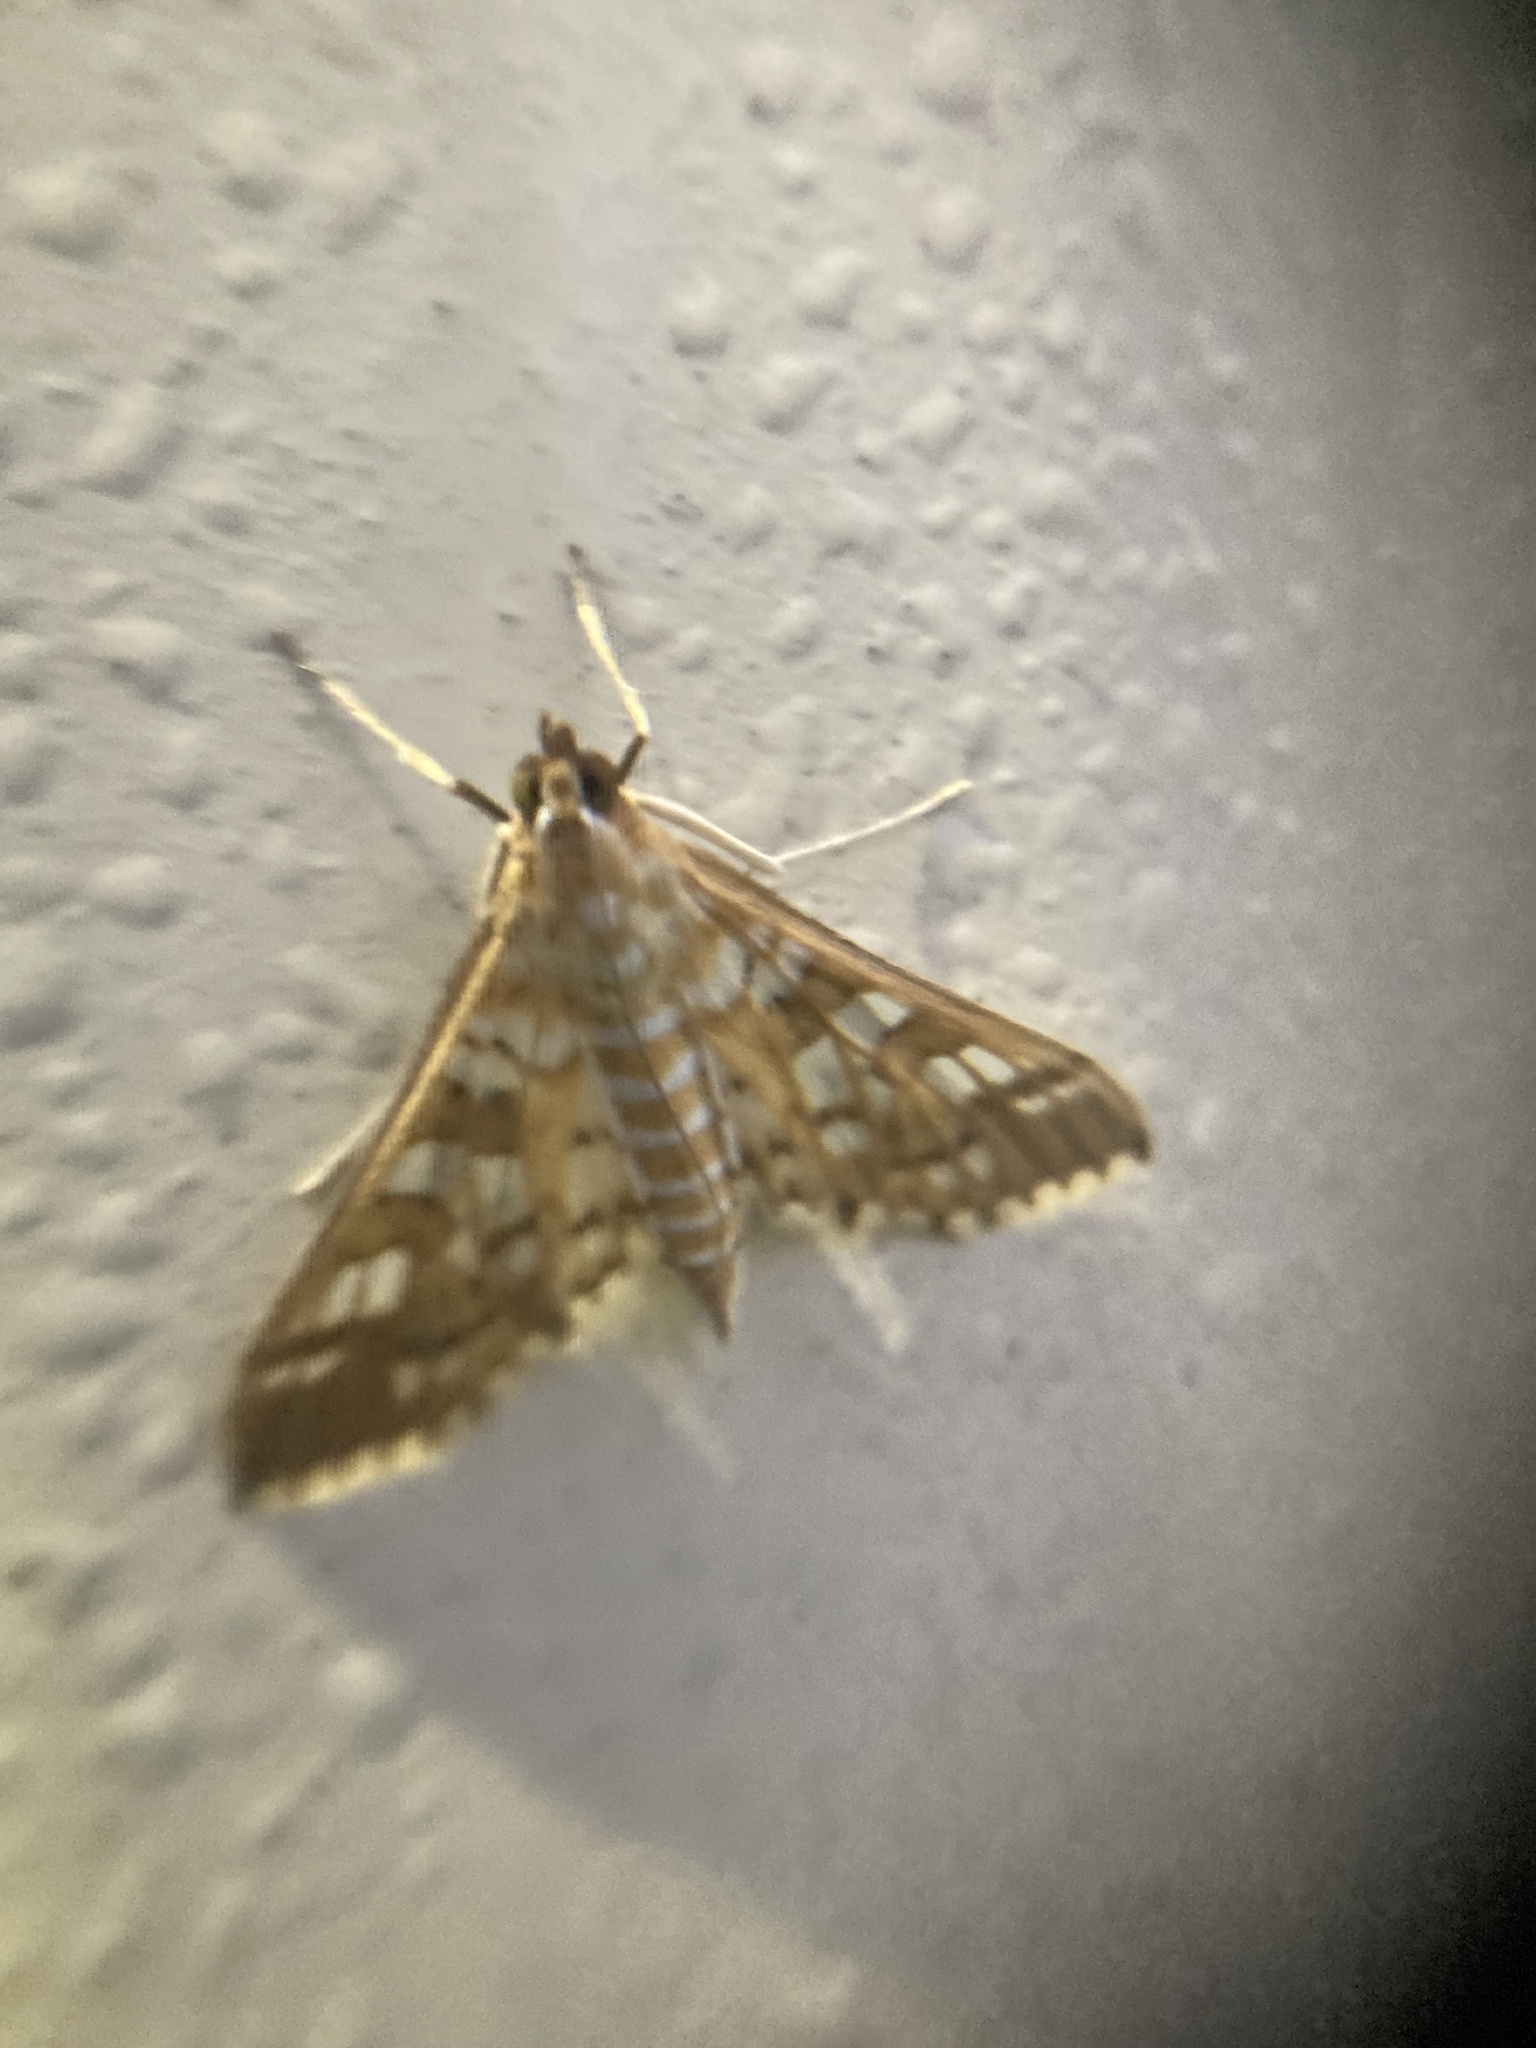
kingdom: Animalia
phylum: Arthropoda
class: Insecta
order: Lepidoptera
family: Crambidae
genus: Epipagis
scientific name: Epipagis fenestralis
